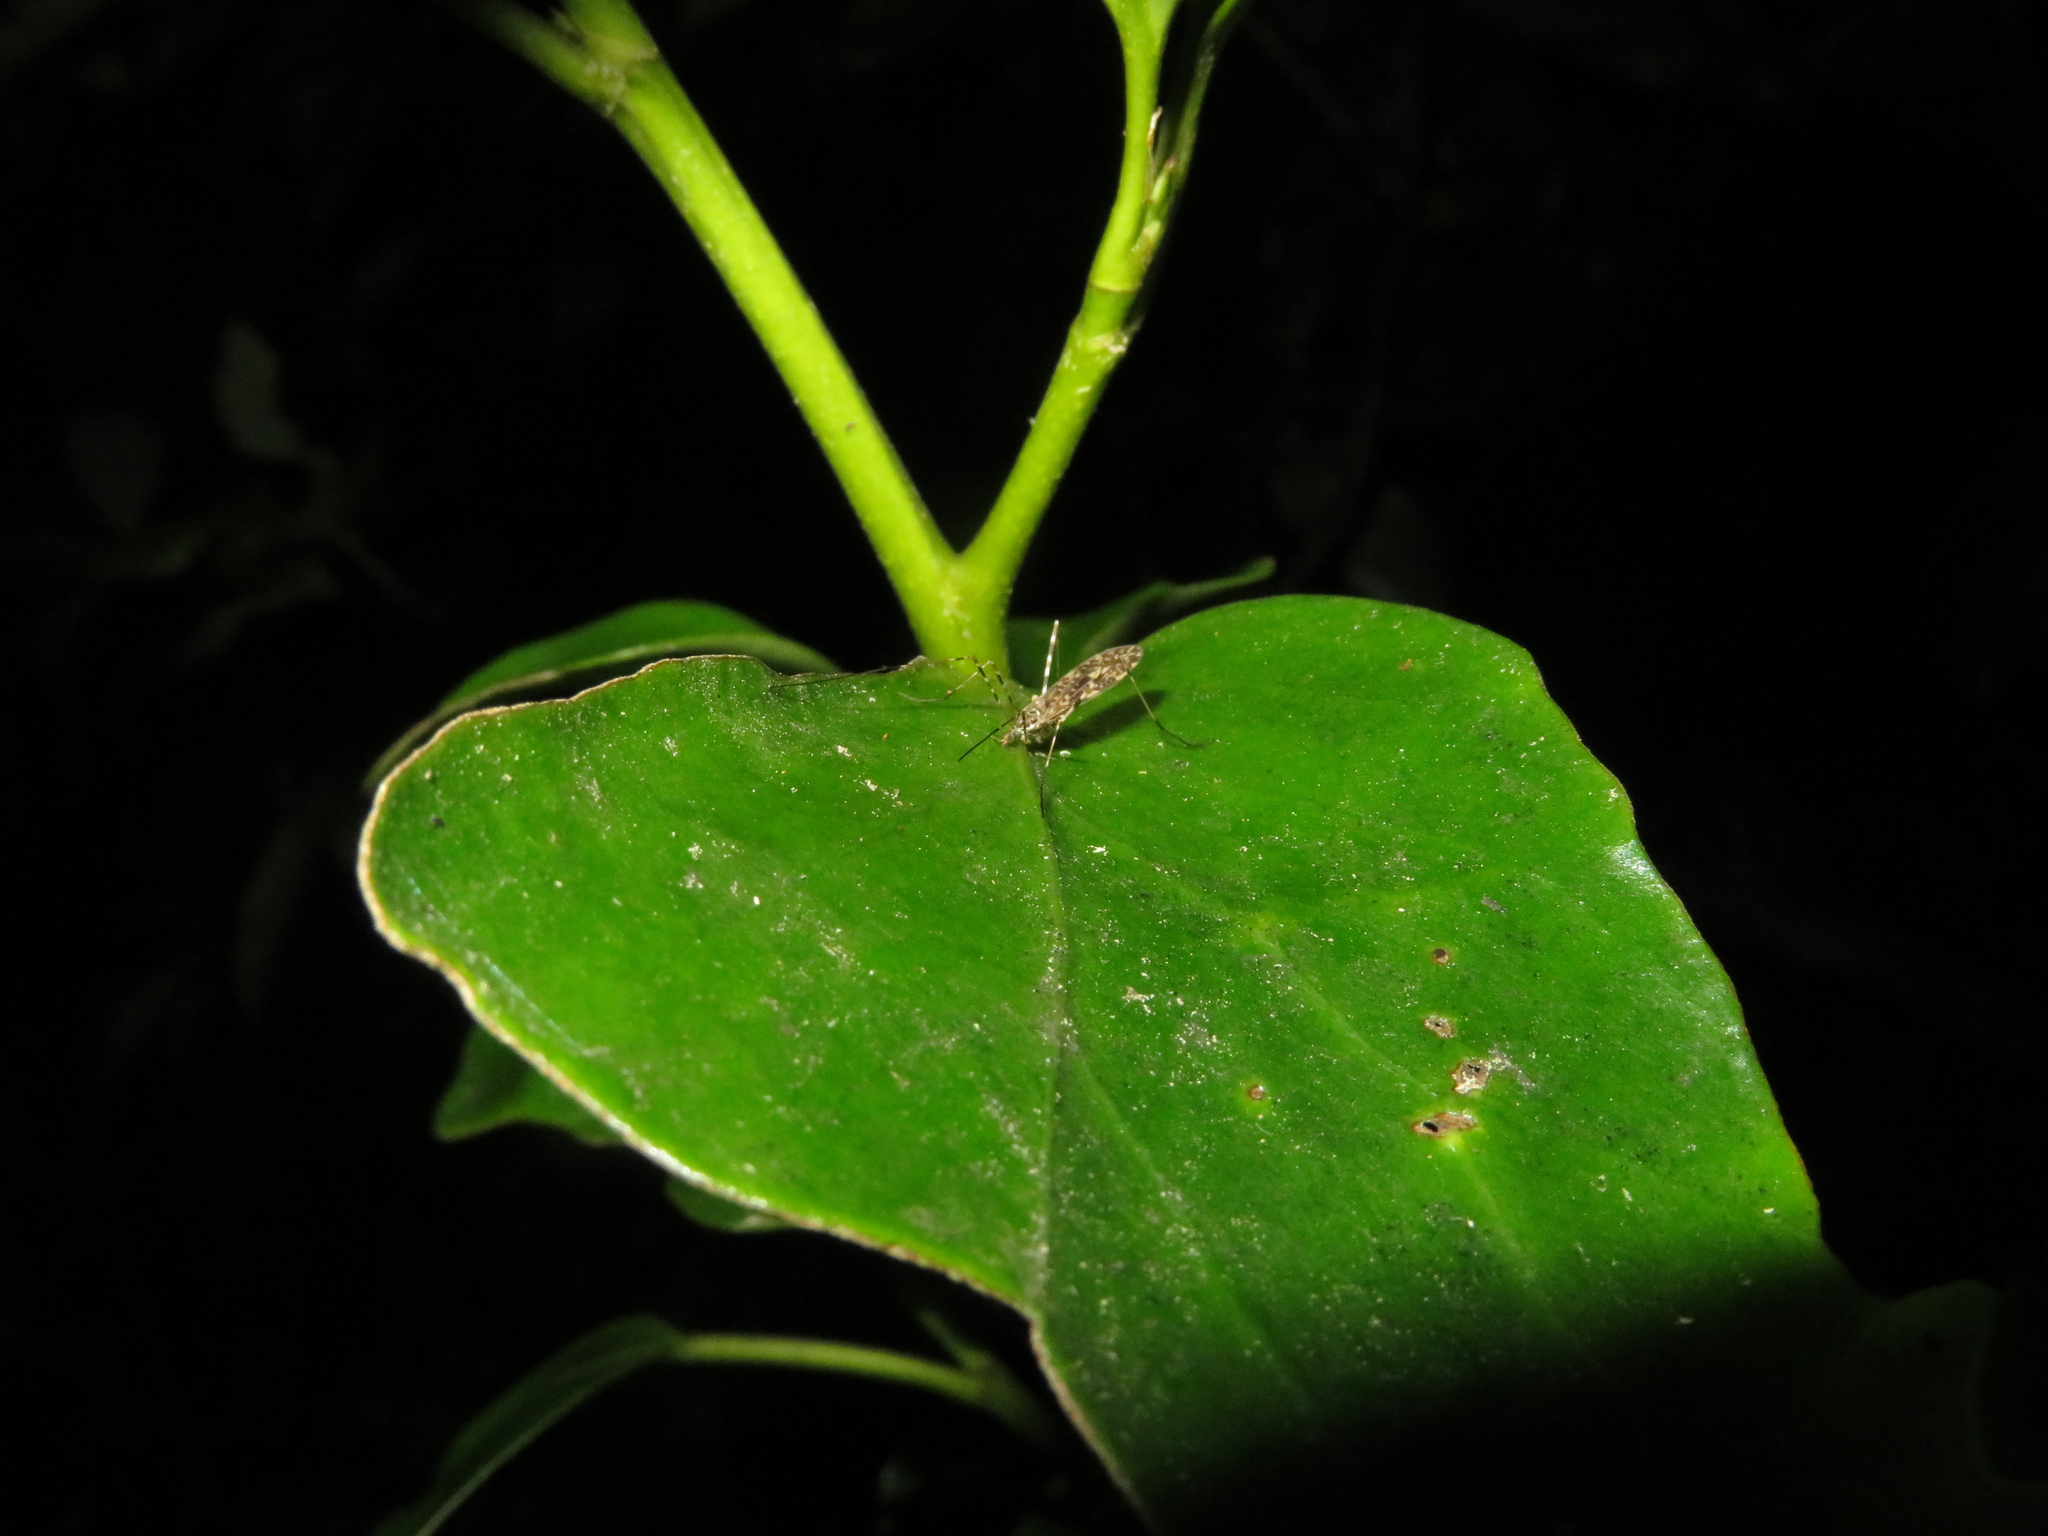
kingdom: Animalia
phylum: Arthropoda
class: Insecta
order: Diptera
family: Limoniidae
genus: Amphineurus
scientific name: Amphineurus hudsoni
